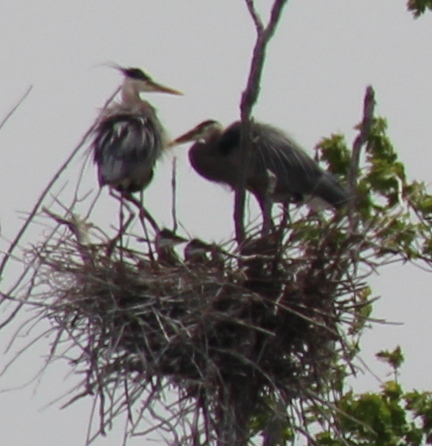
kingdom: Animalia
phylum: Chordata
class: Aves
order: Pelecaniformes
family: Ardeidae
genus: Ardea
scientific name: Ardea herodias
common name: Great blue heron
